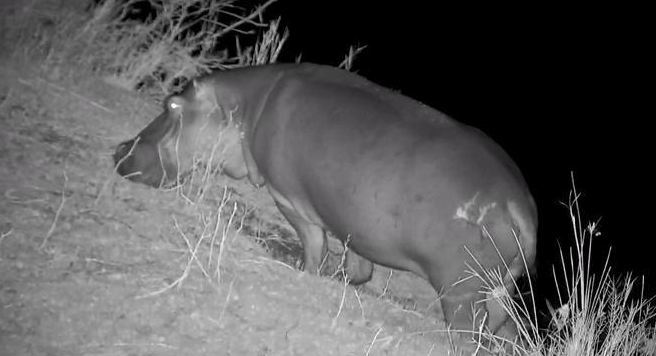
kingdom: Animalia
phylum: Chordata
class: Mammalia
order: Artiodactyla
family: Hippopotamidae
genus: Hippopotamus
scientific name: Hippopotamus amphibius
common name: Common hippopotamus
